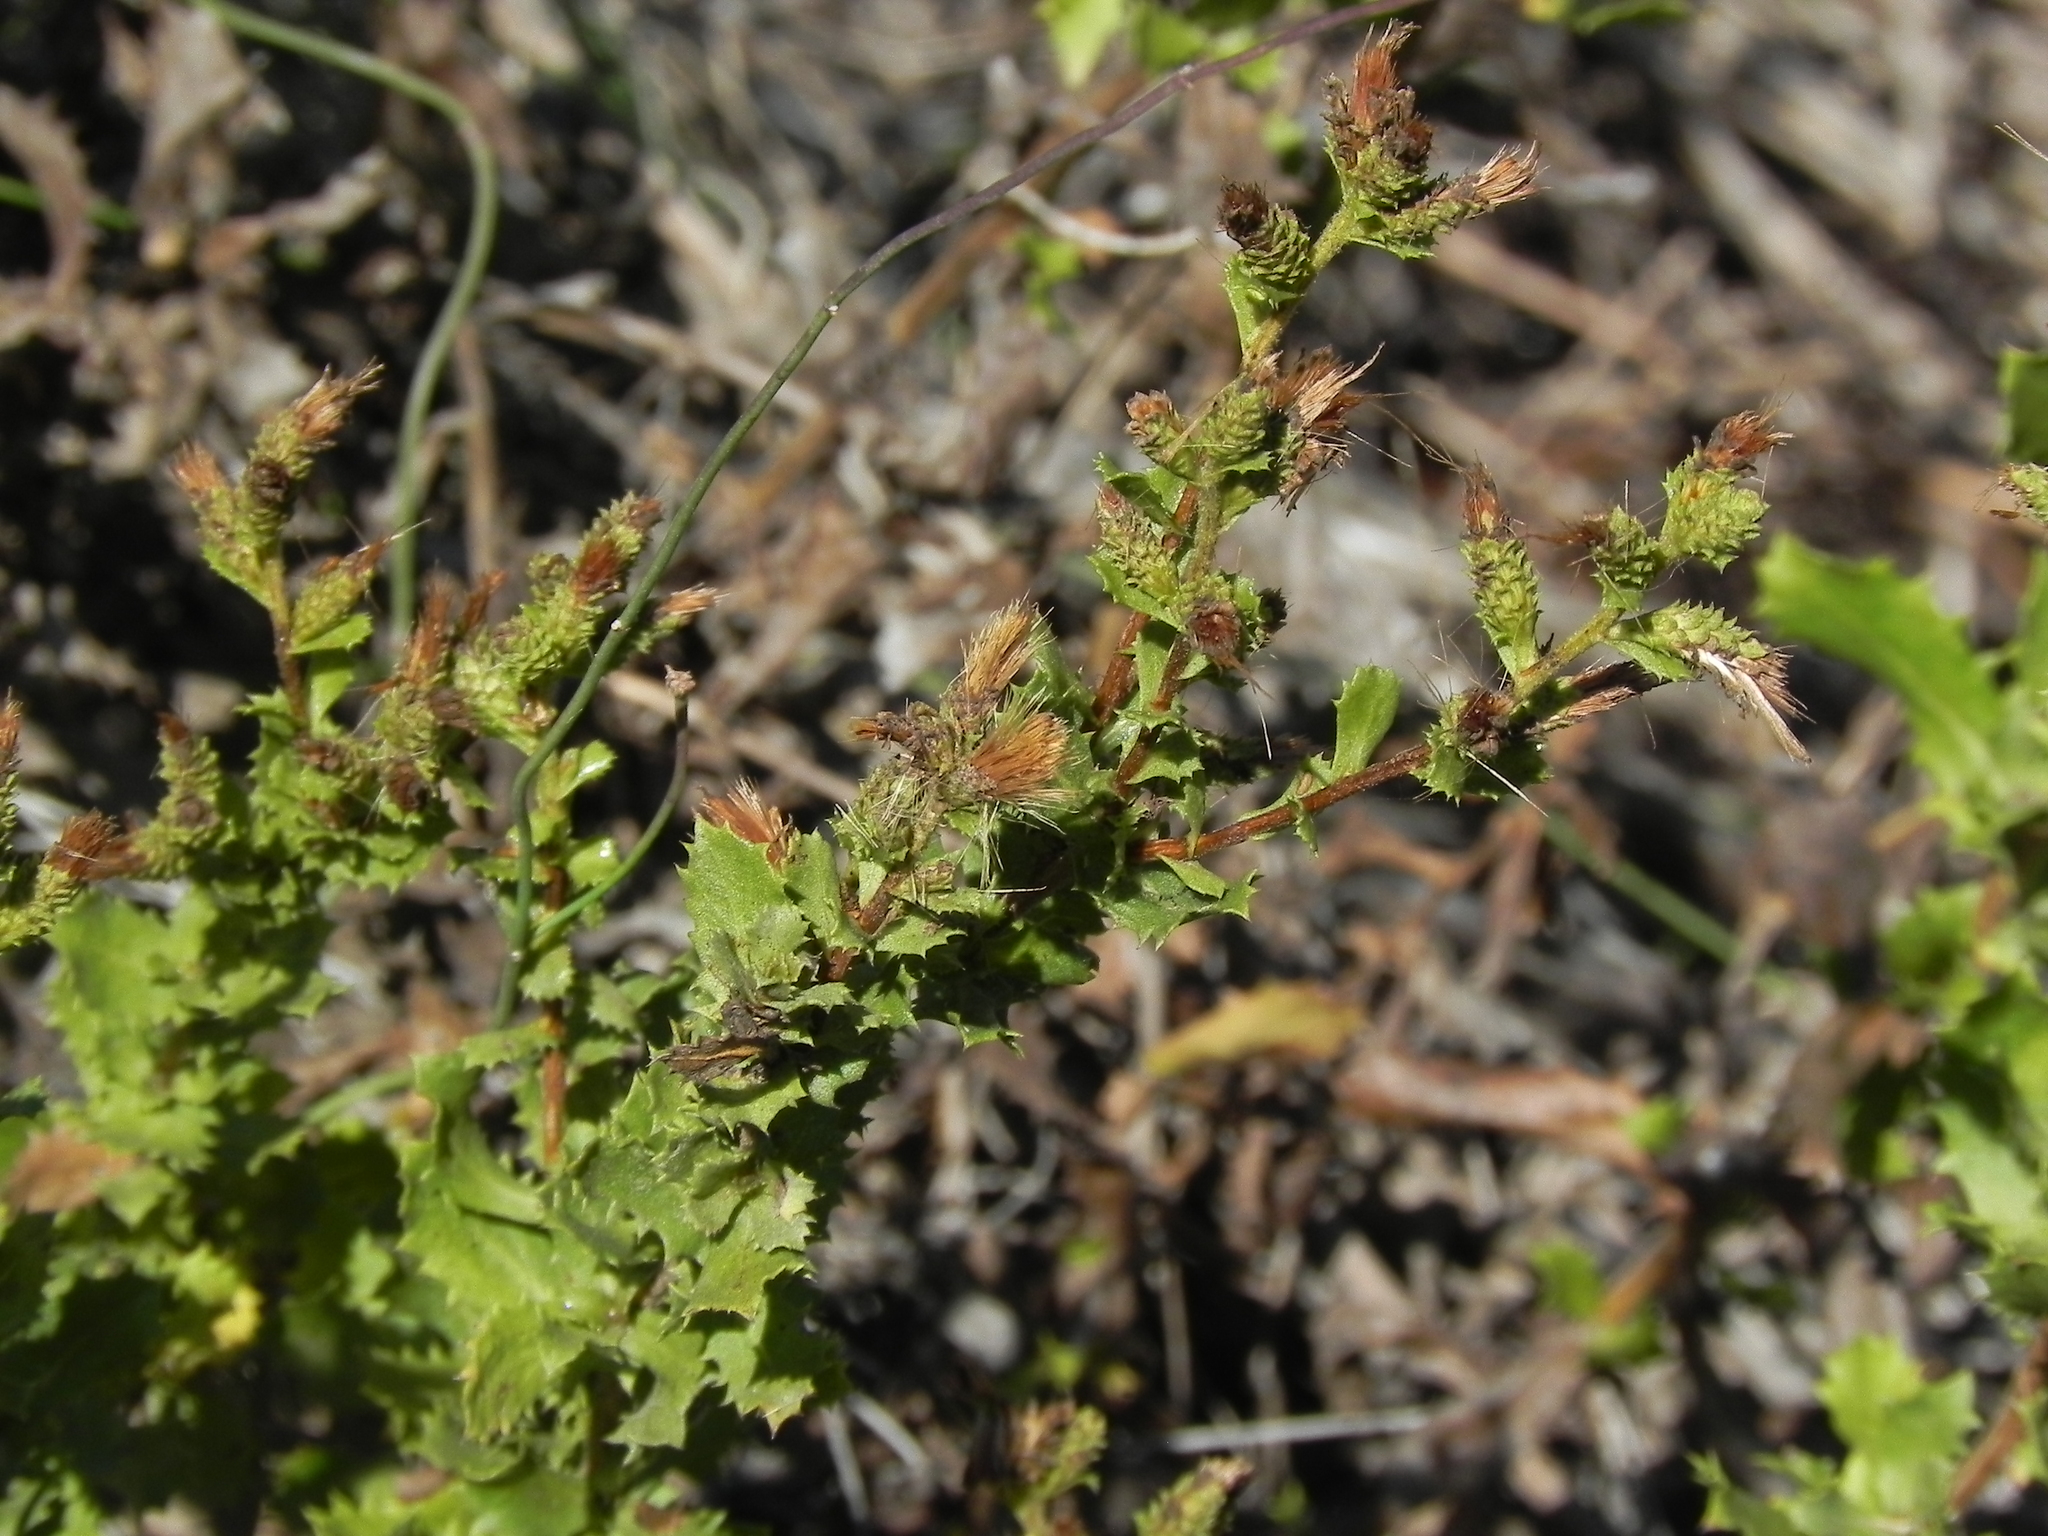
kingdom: Plantae
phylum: Tracheophyta
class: Magnoliopsida
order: Asterales
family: Asteraceae
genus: Hazardia
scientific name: Hazardia squarrosa
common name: Saw-tooth goldenbush
